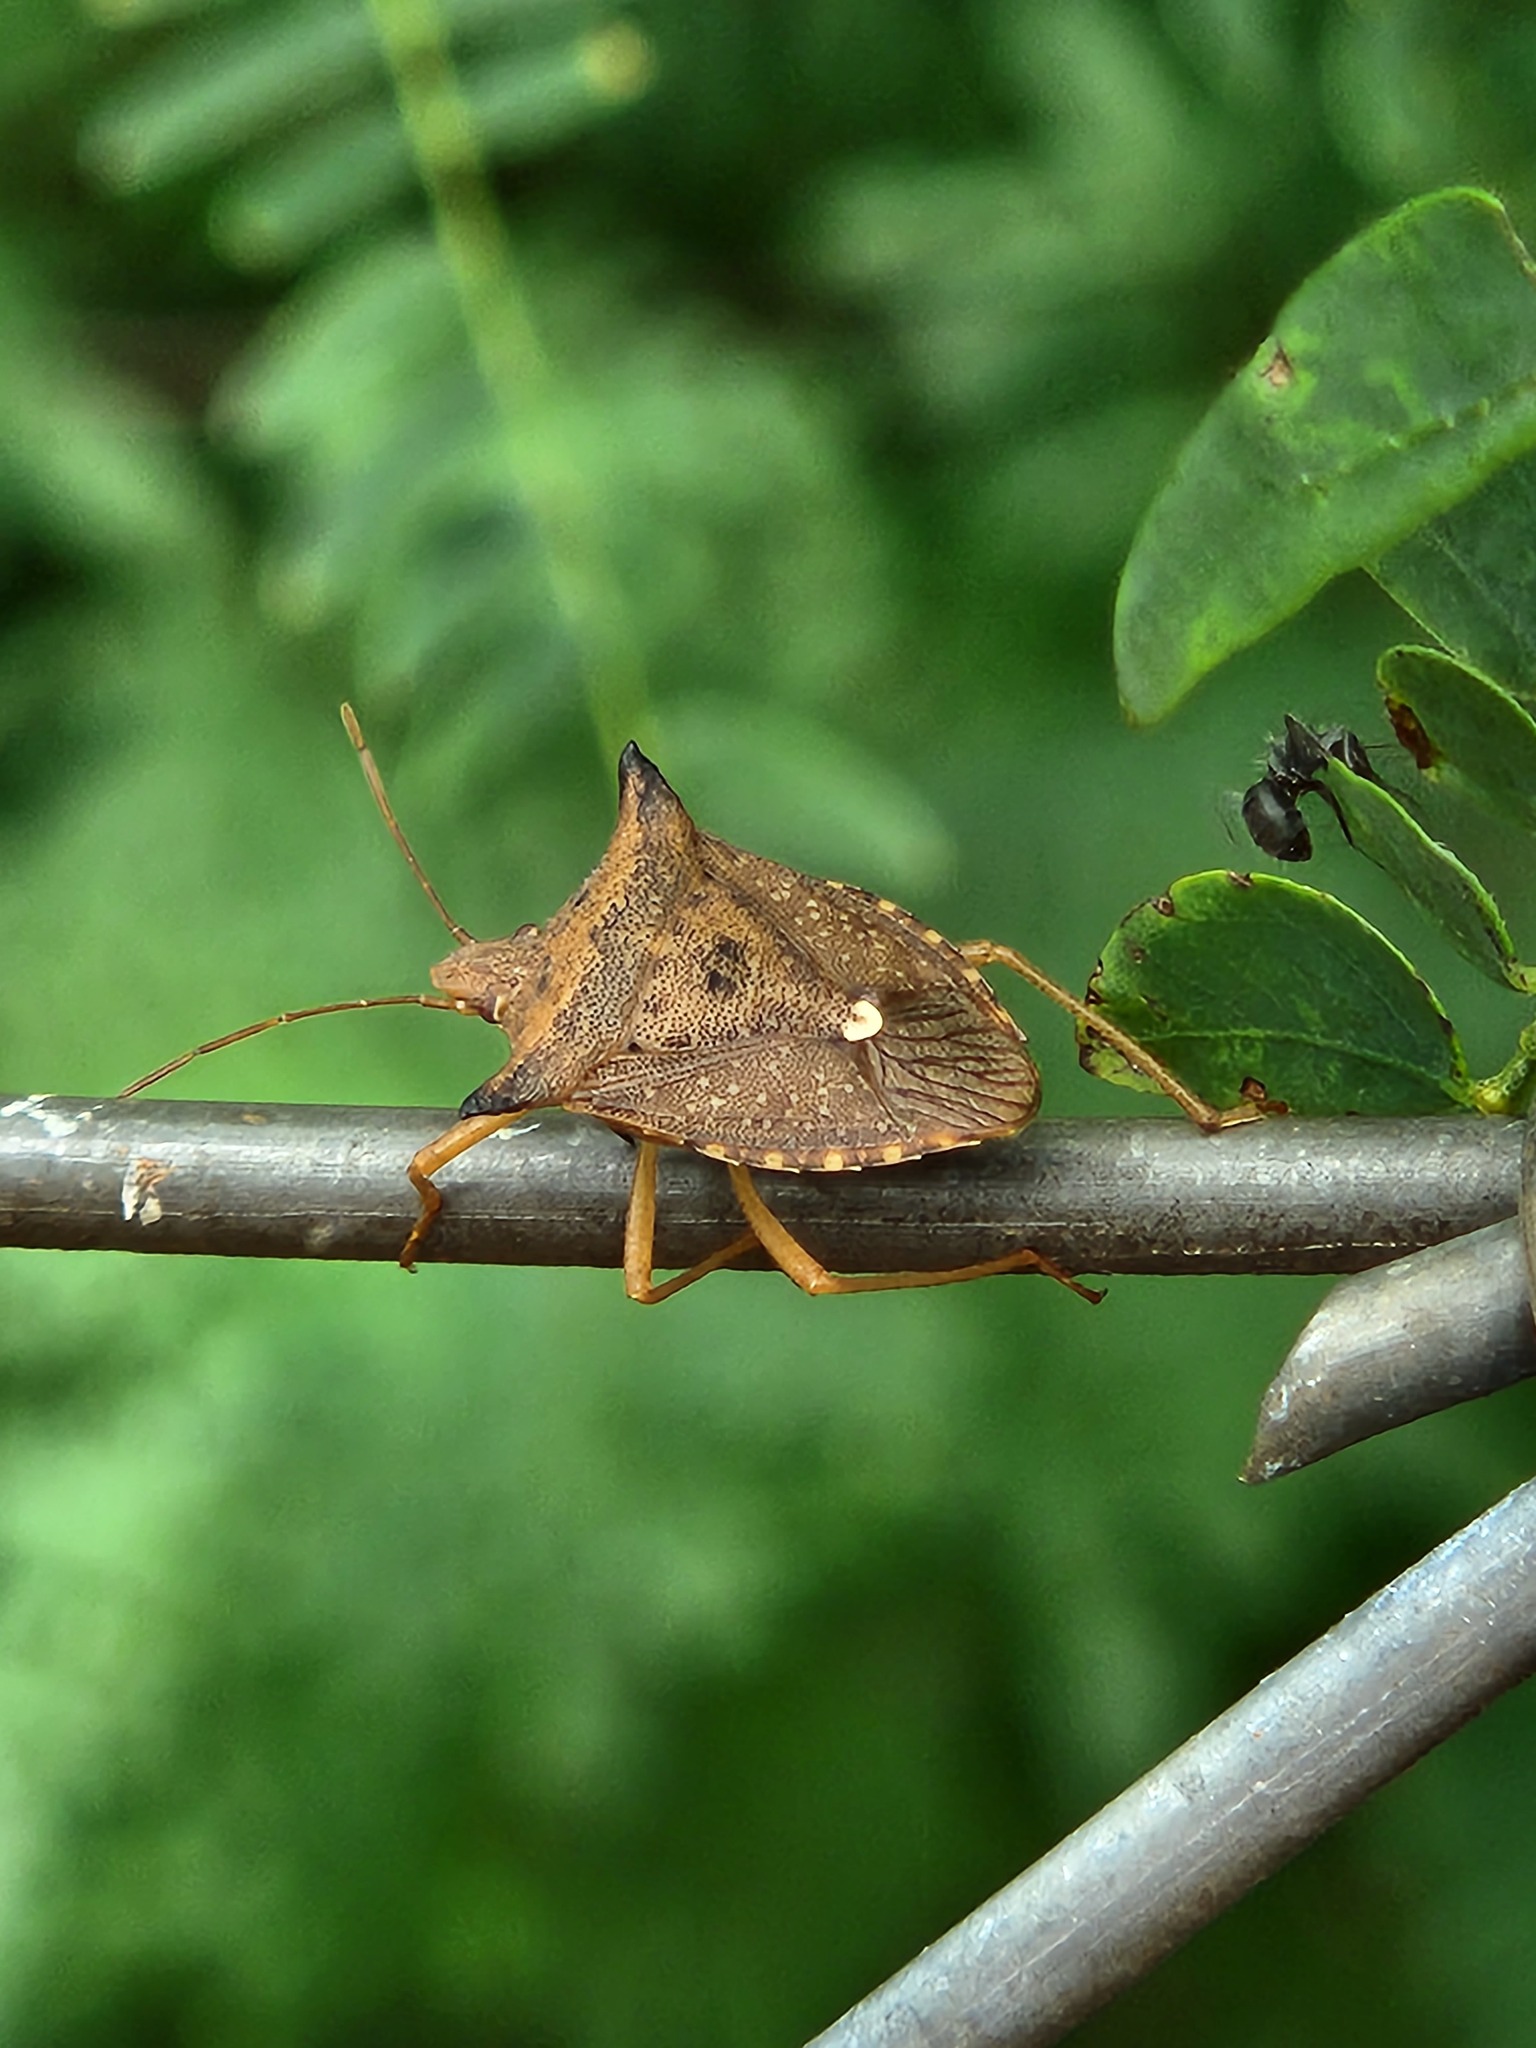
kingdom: Animalia
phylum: Arthropoda
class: Insecta
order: Hemiptera
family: Pentatomidae
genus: Euschistus
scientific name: Euschistus heros
